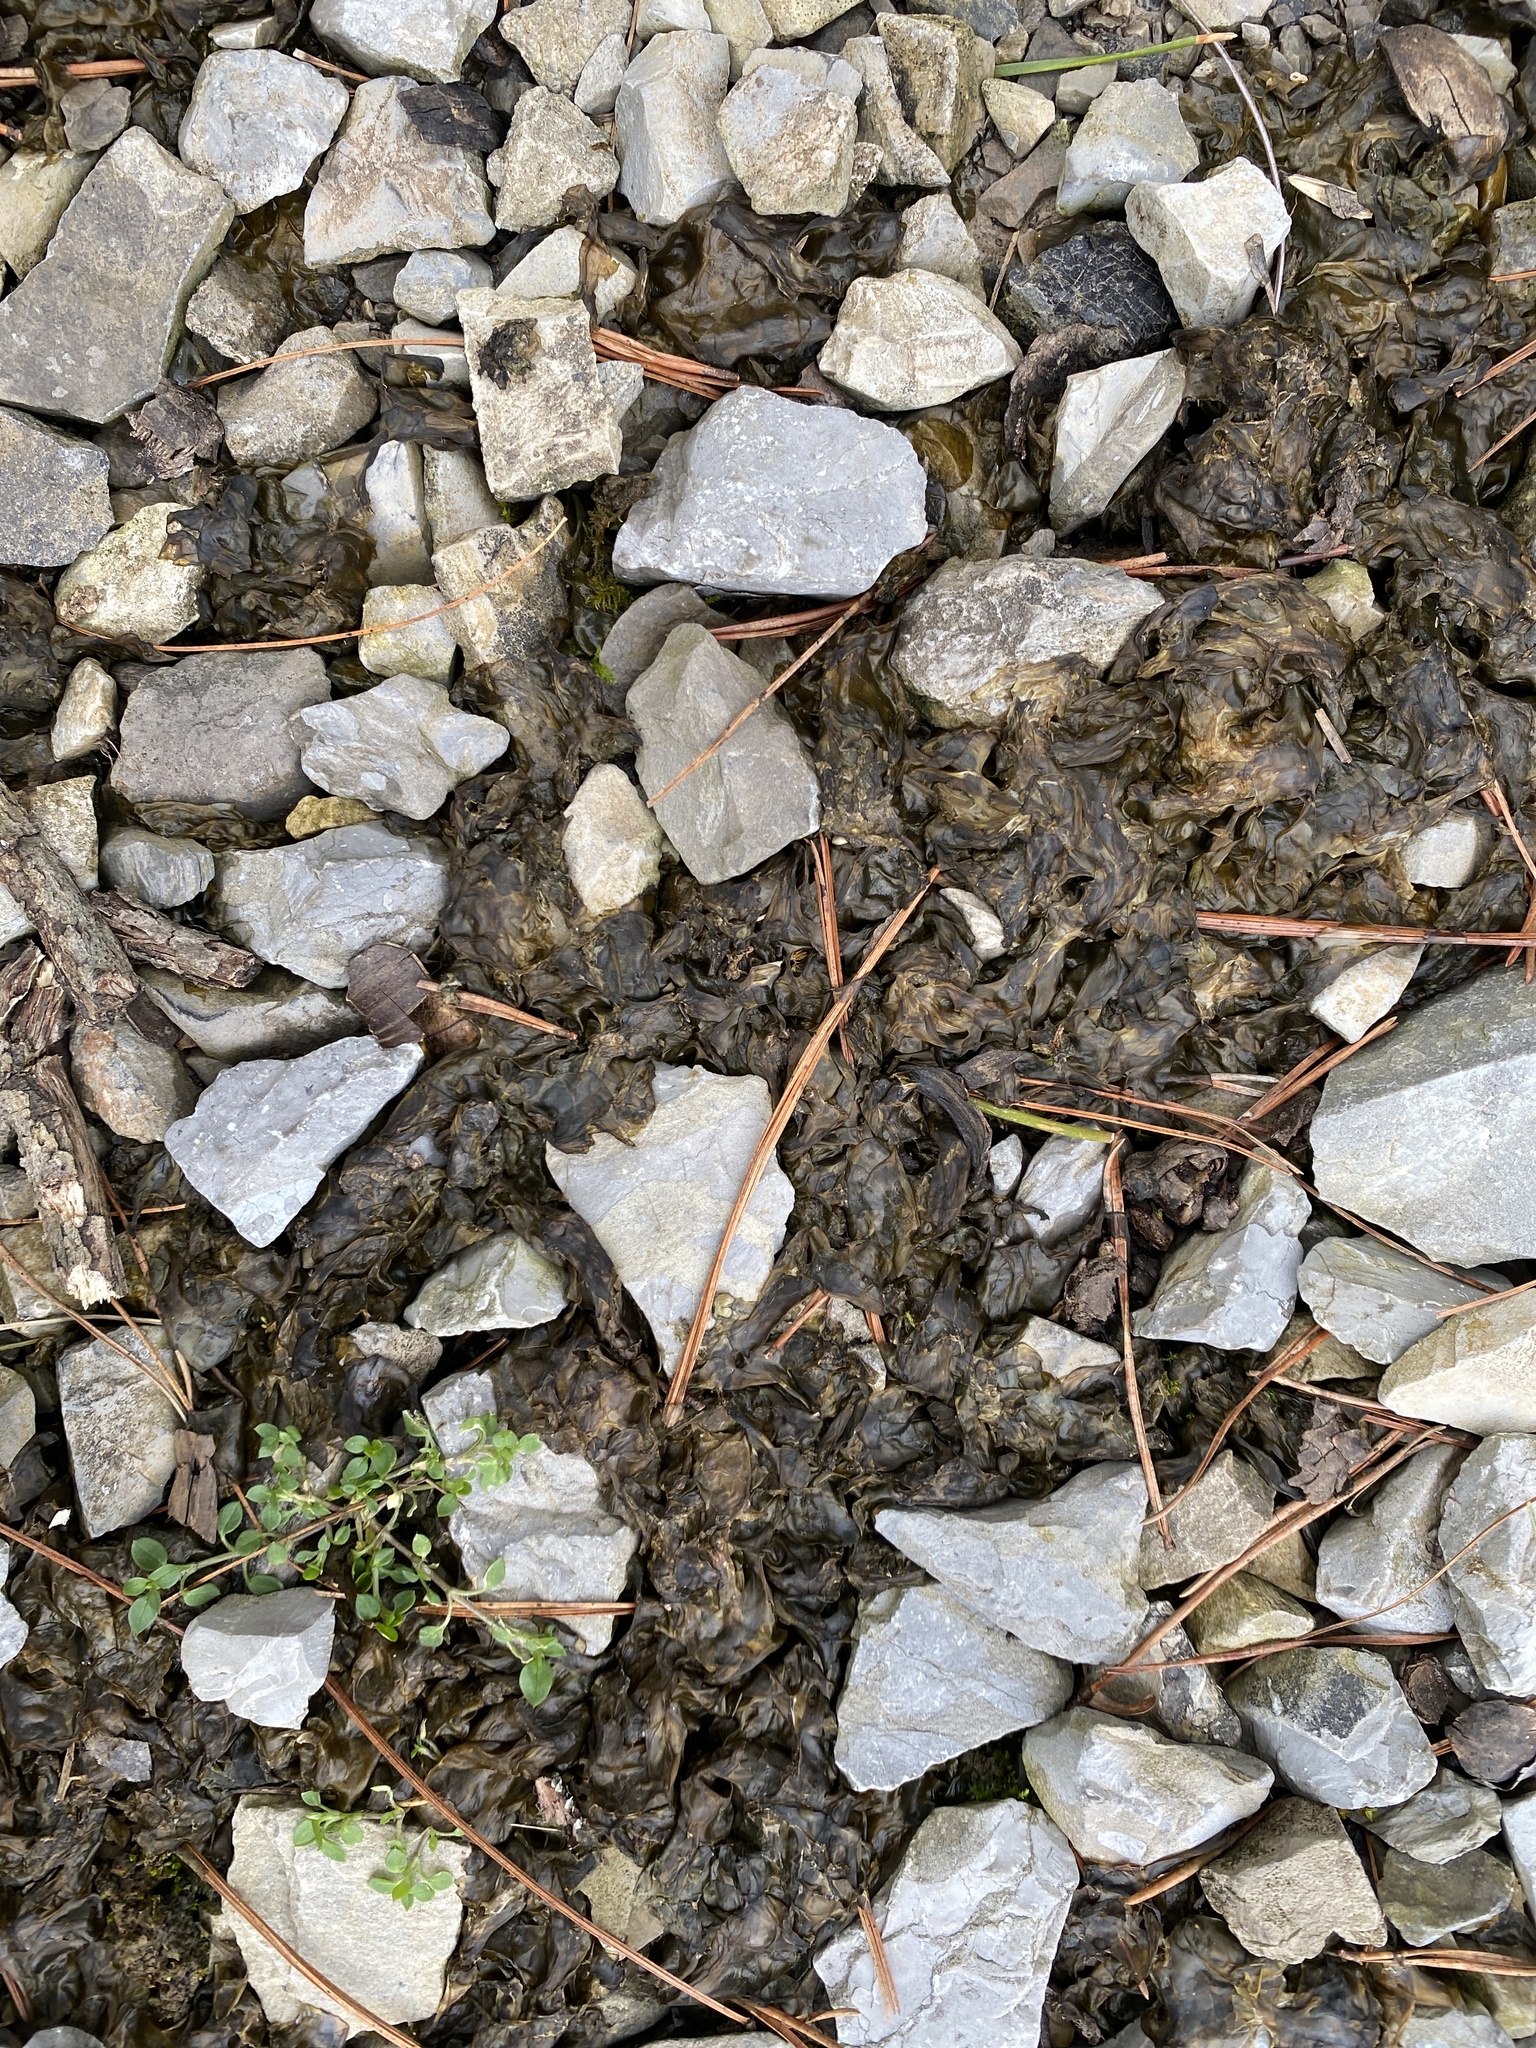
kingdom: Bacteria
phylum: Cyanobacteria
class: Cyanobacteriia
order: Cyanobacteriales
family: Nostocaceae
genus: Nostoc
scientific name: Nostoc commune
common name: Star jelly
